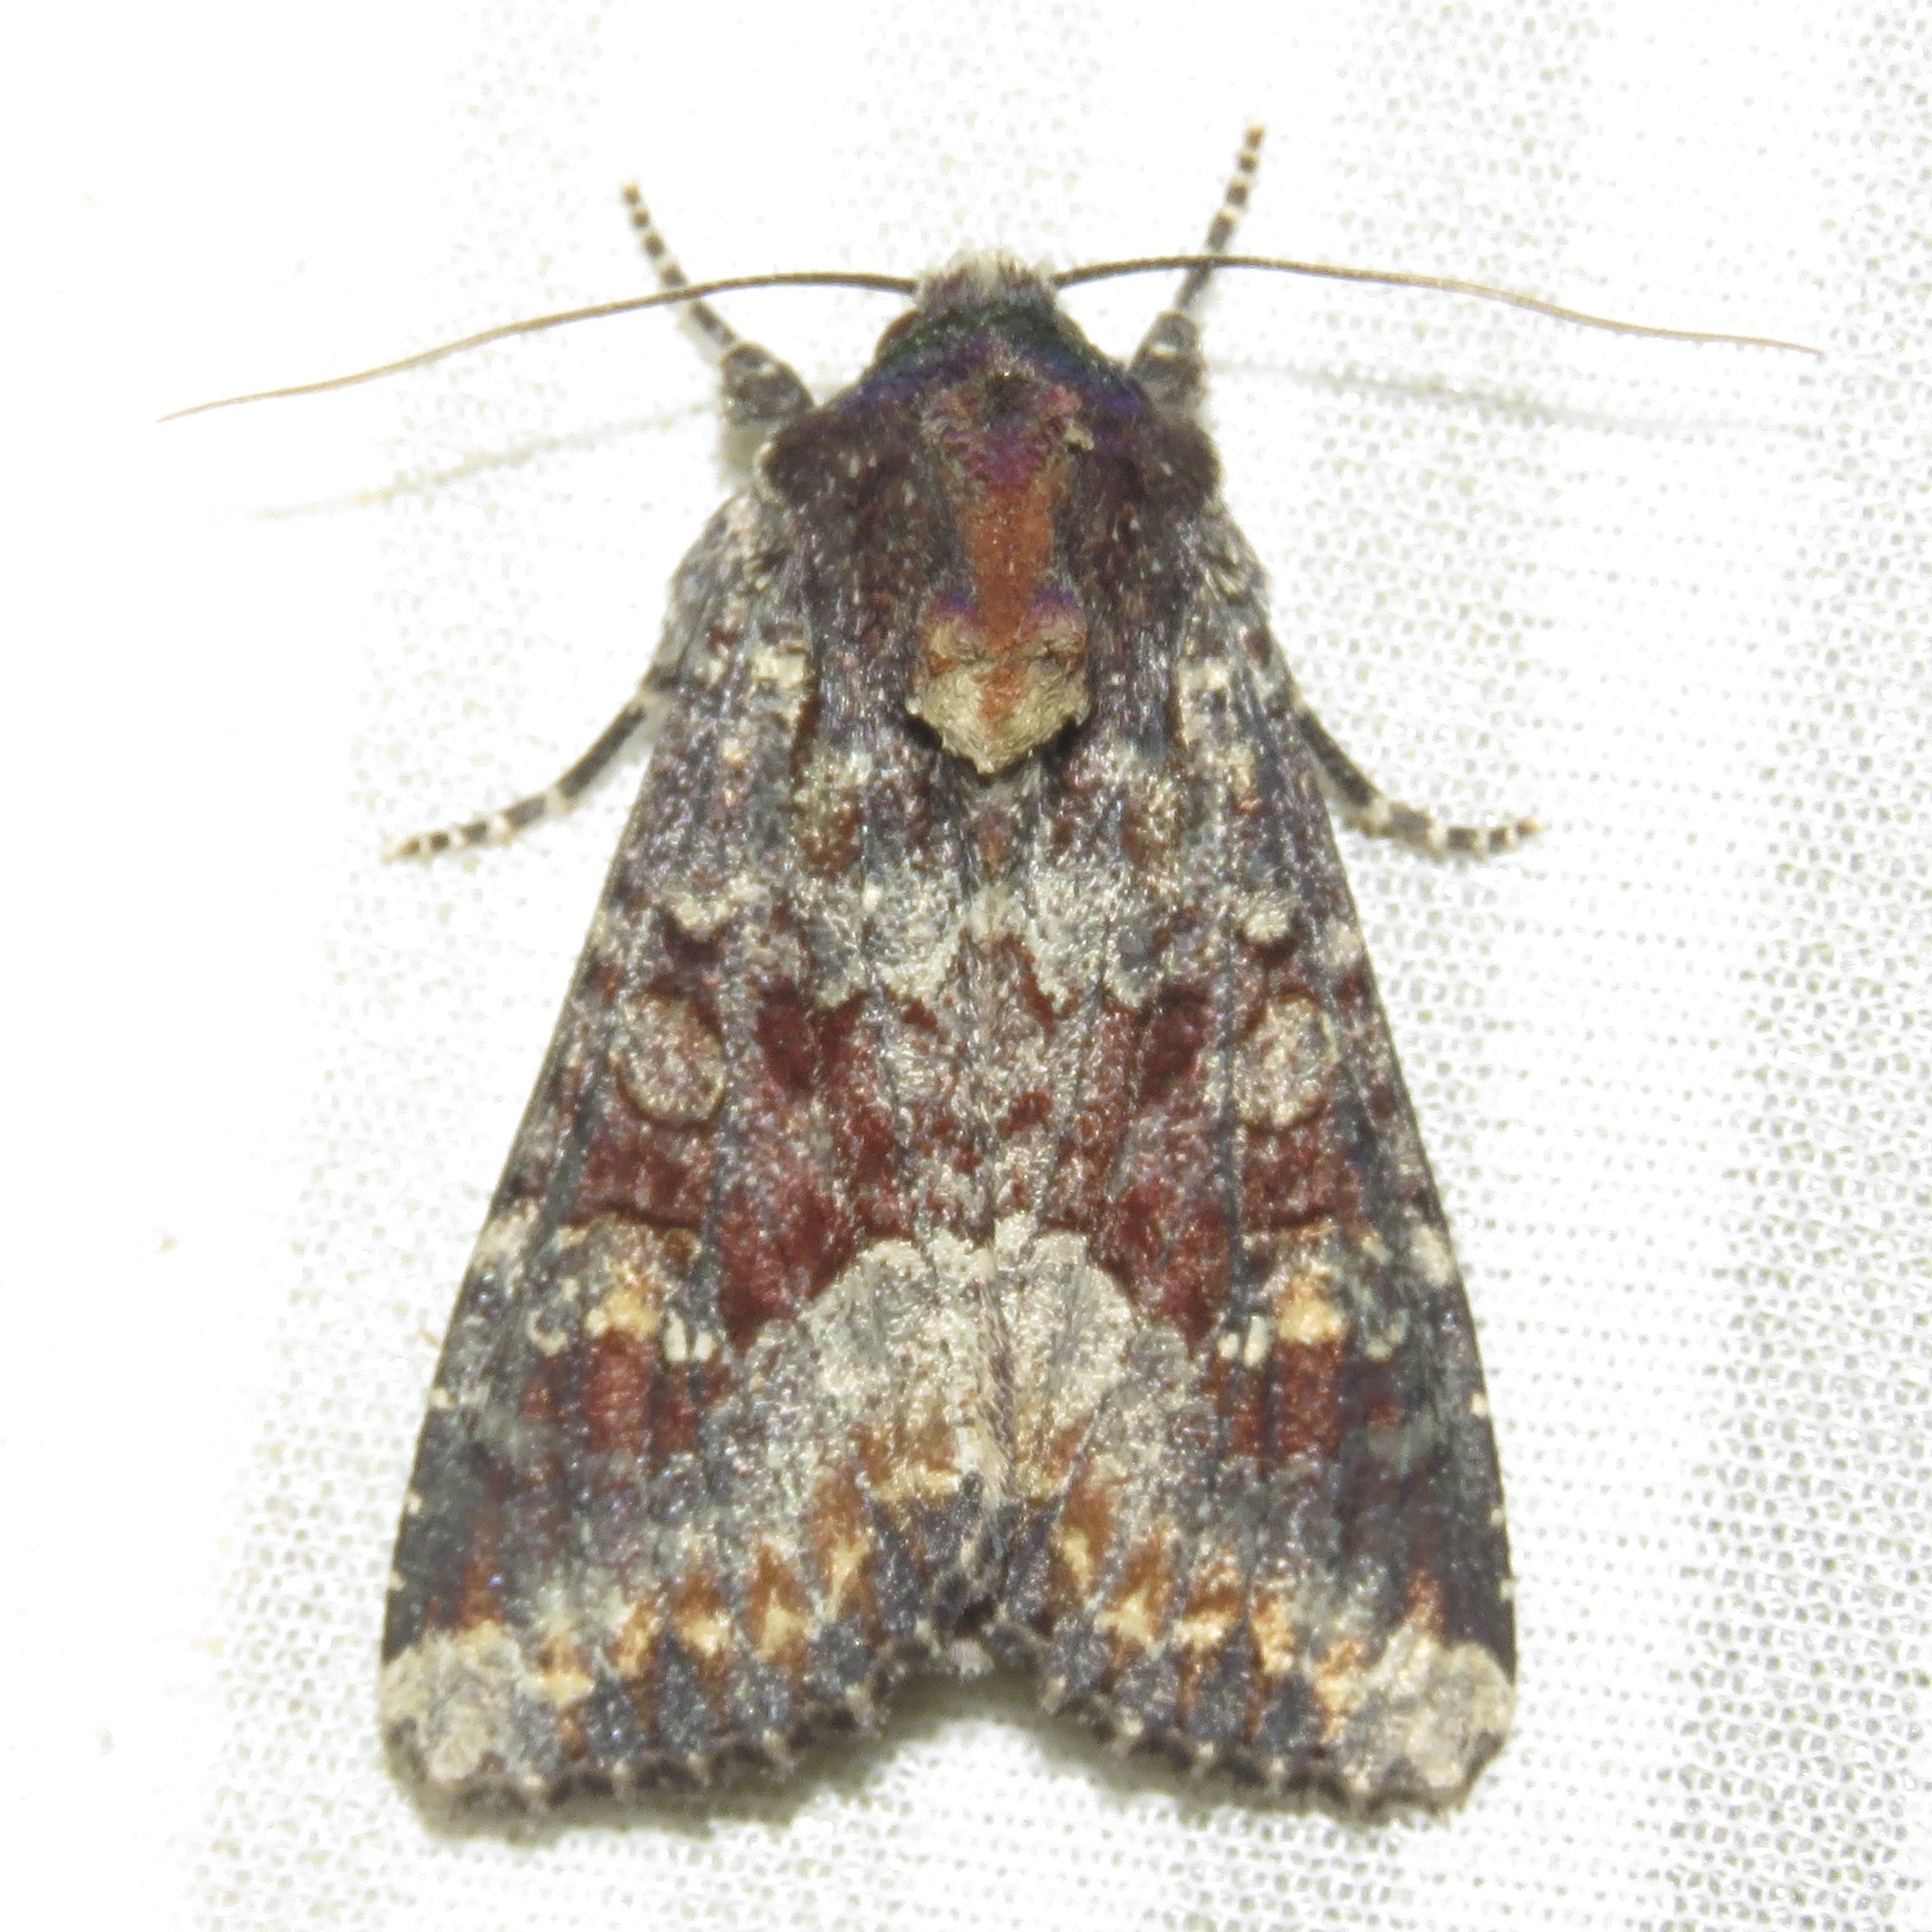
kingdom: Animalia
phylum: Arthropoda
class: Insecta
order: Lepidoptera
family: Noctuidae
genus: Apamea
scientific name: Apamea amputatrix
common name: Yellow-headed cutworm moth
